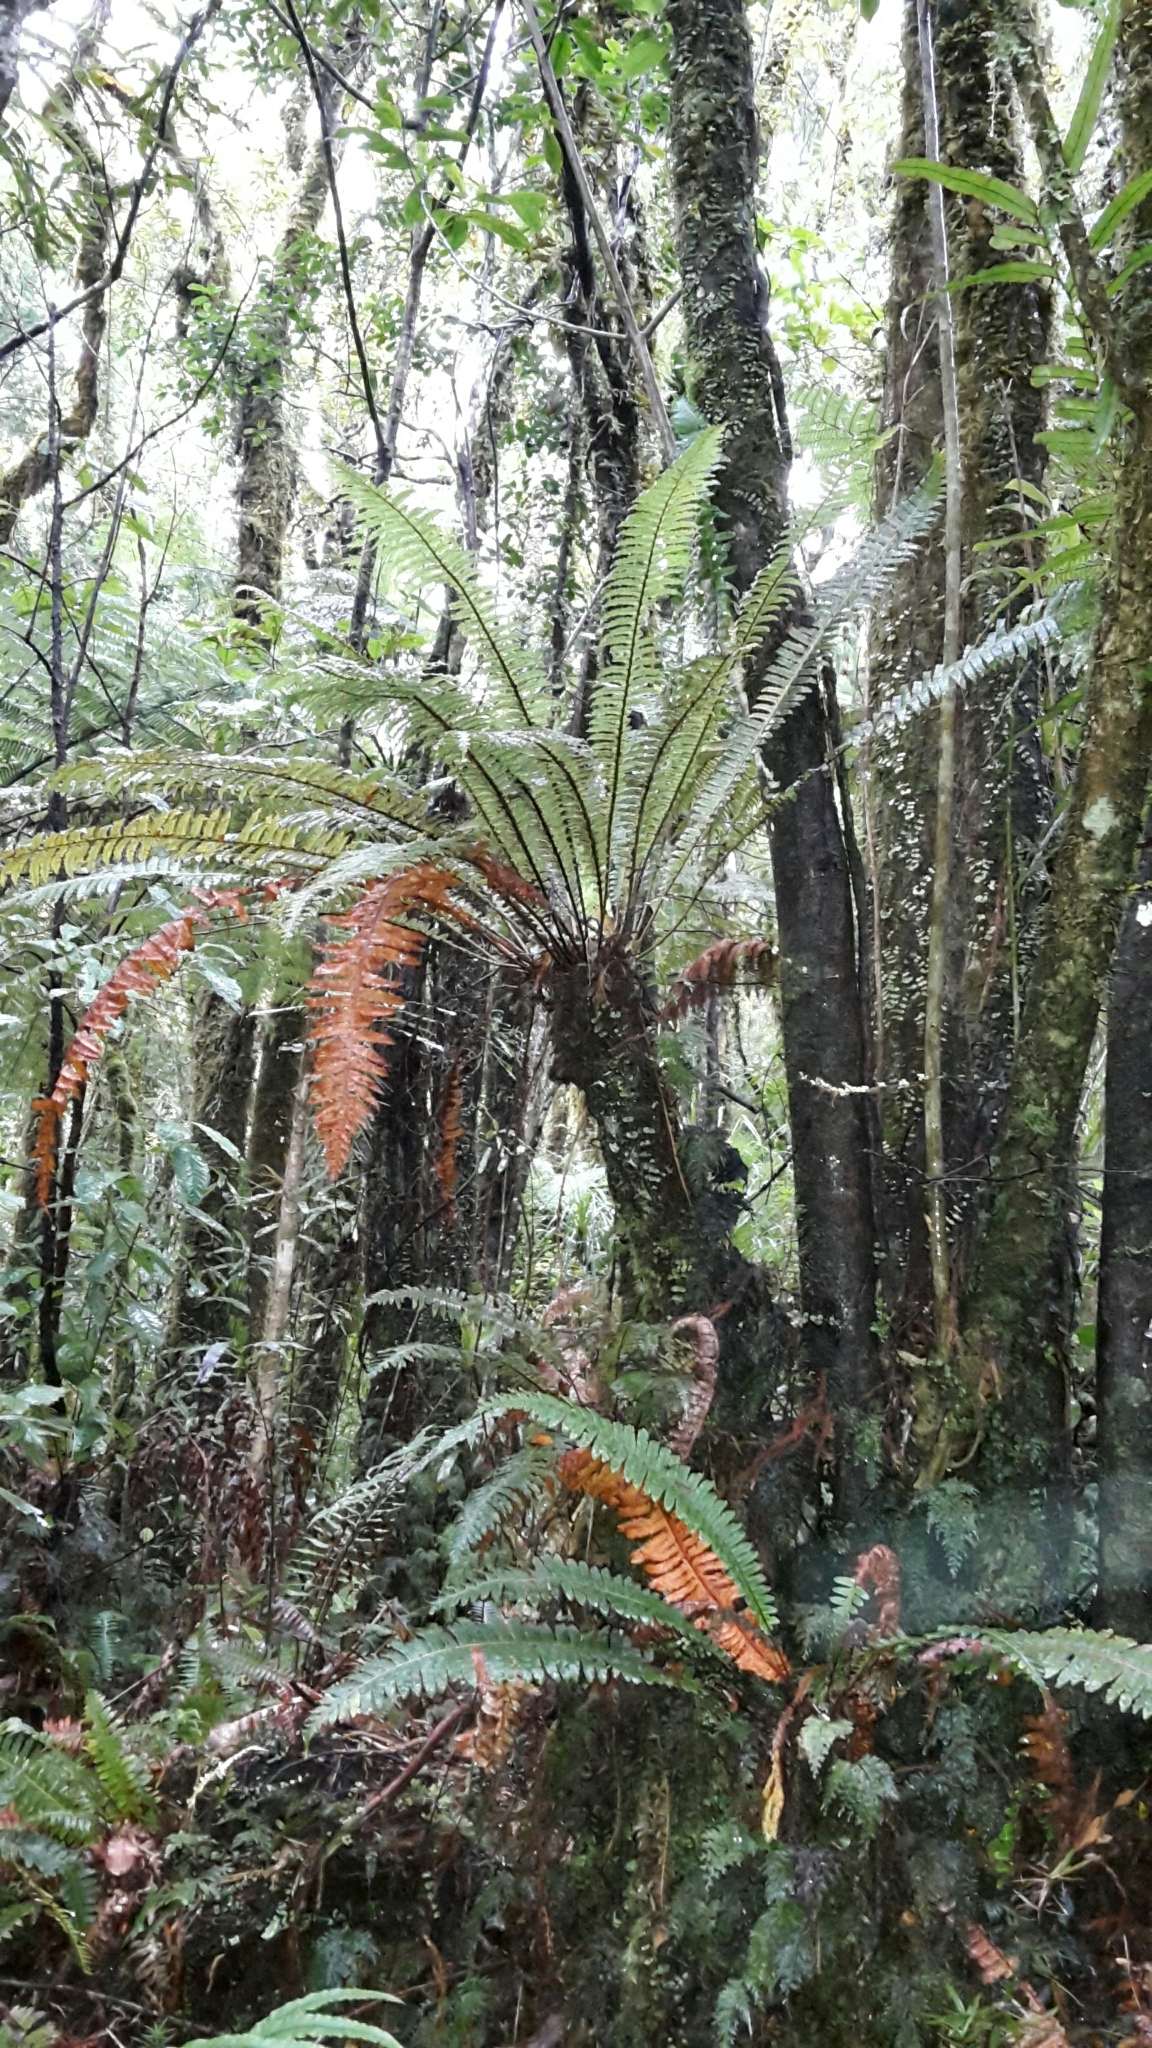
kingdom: Plantae
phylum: Tracheophyta
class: Polypodiopsida
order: Polypodiales
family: Blechnaceae
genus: Lomaria
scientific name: Lomaria discolor
